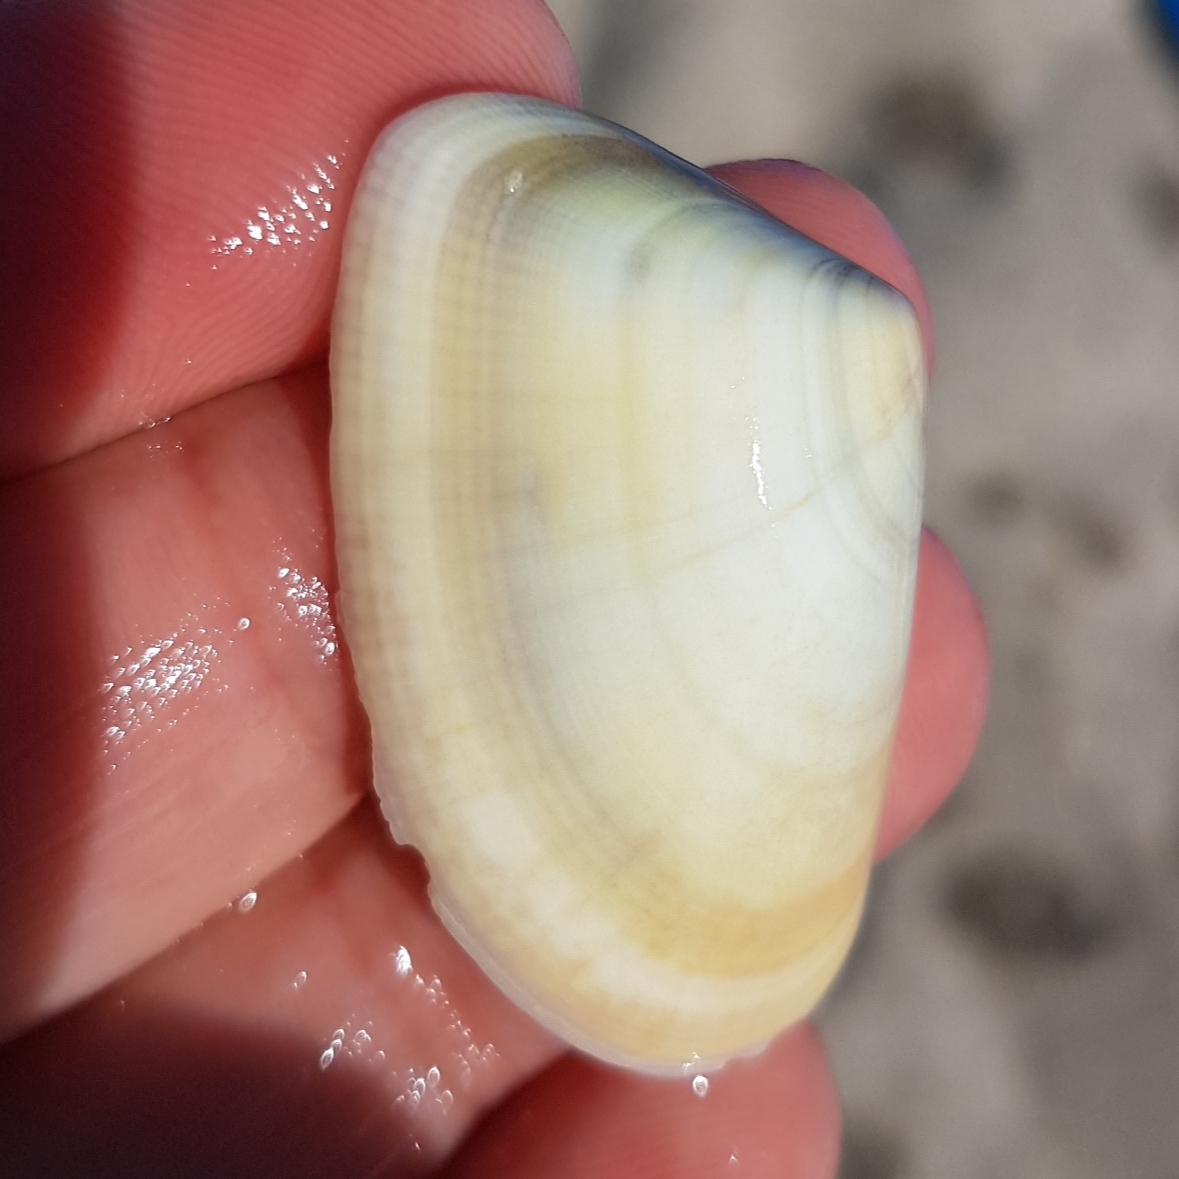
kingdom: Animalia
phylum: Mollusca
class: Bivalvia
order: Cardiida
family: Donacidae
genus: Donax
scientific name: Donax trunculus
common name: Truncate donax
